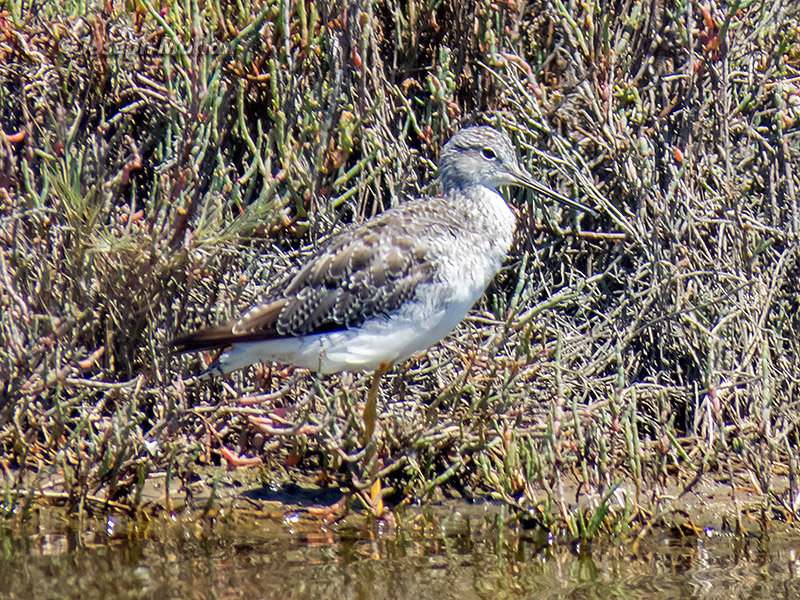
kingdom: Animalia
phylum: Chordata
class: Aves
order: Charadriiformes
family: Scolopacidae
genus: Tringa
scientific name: Tringa melanoleuca
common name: Greater yellowlegs
